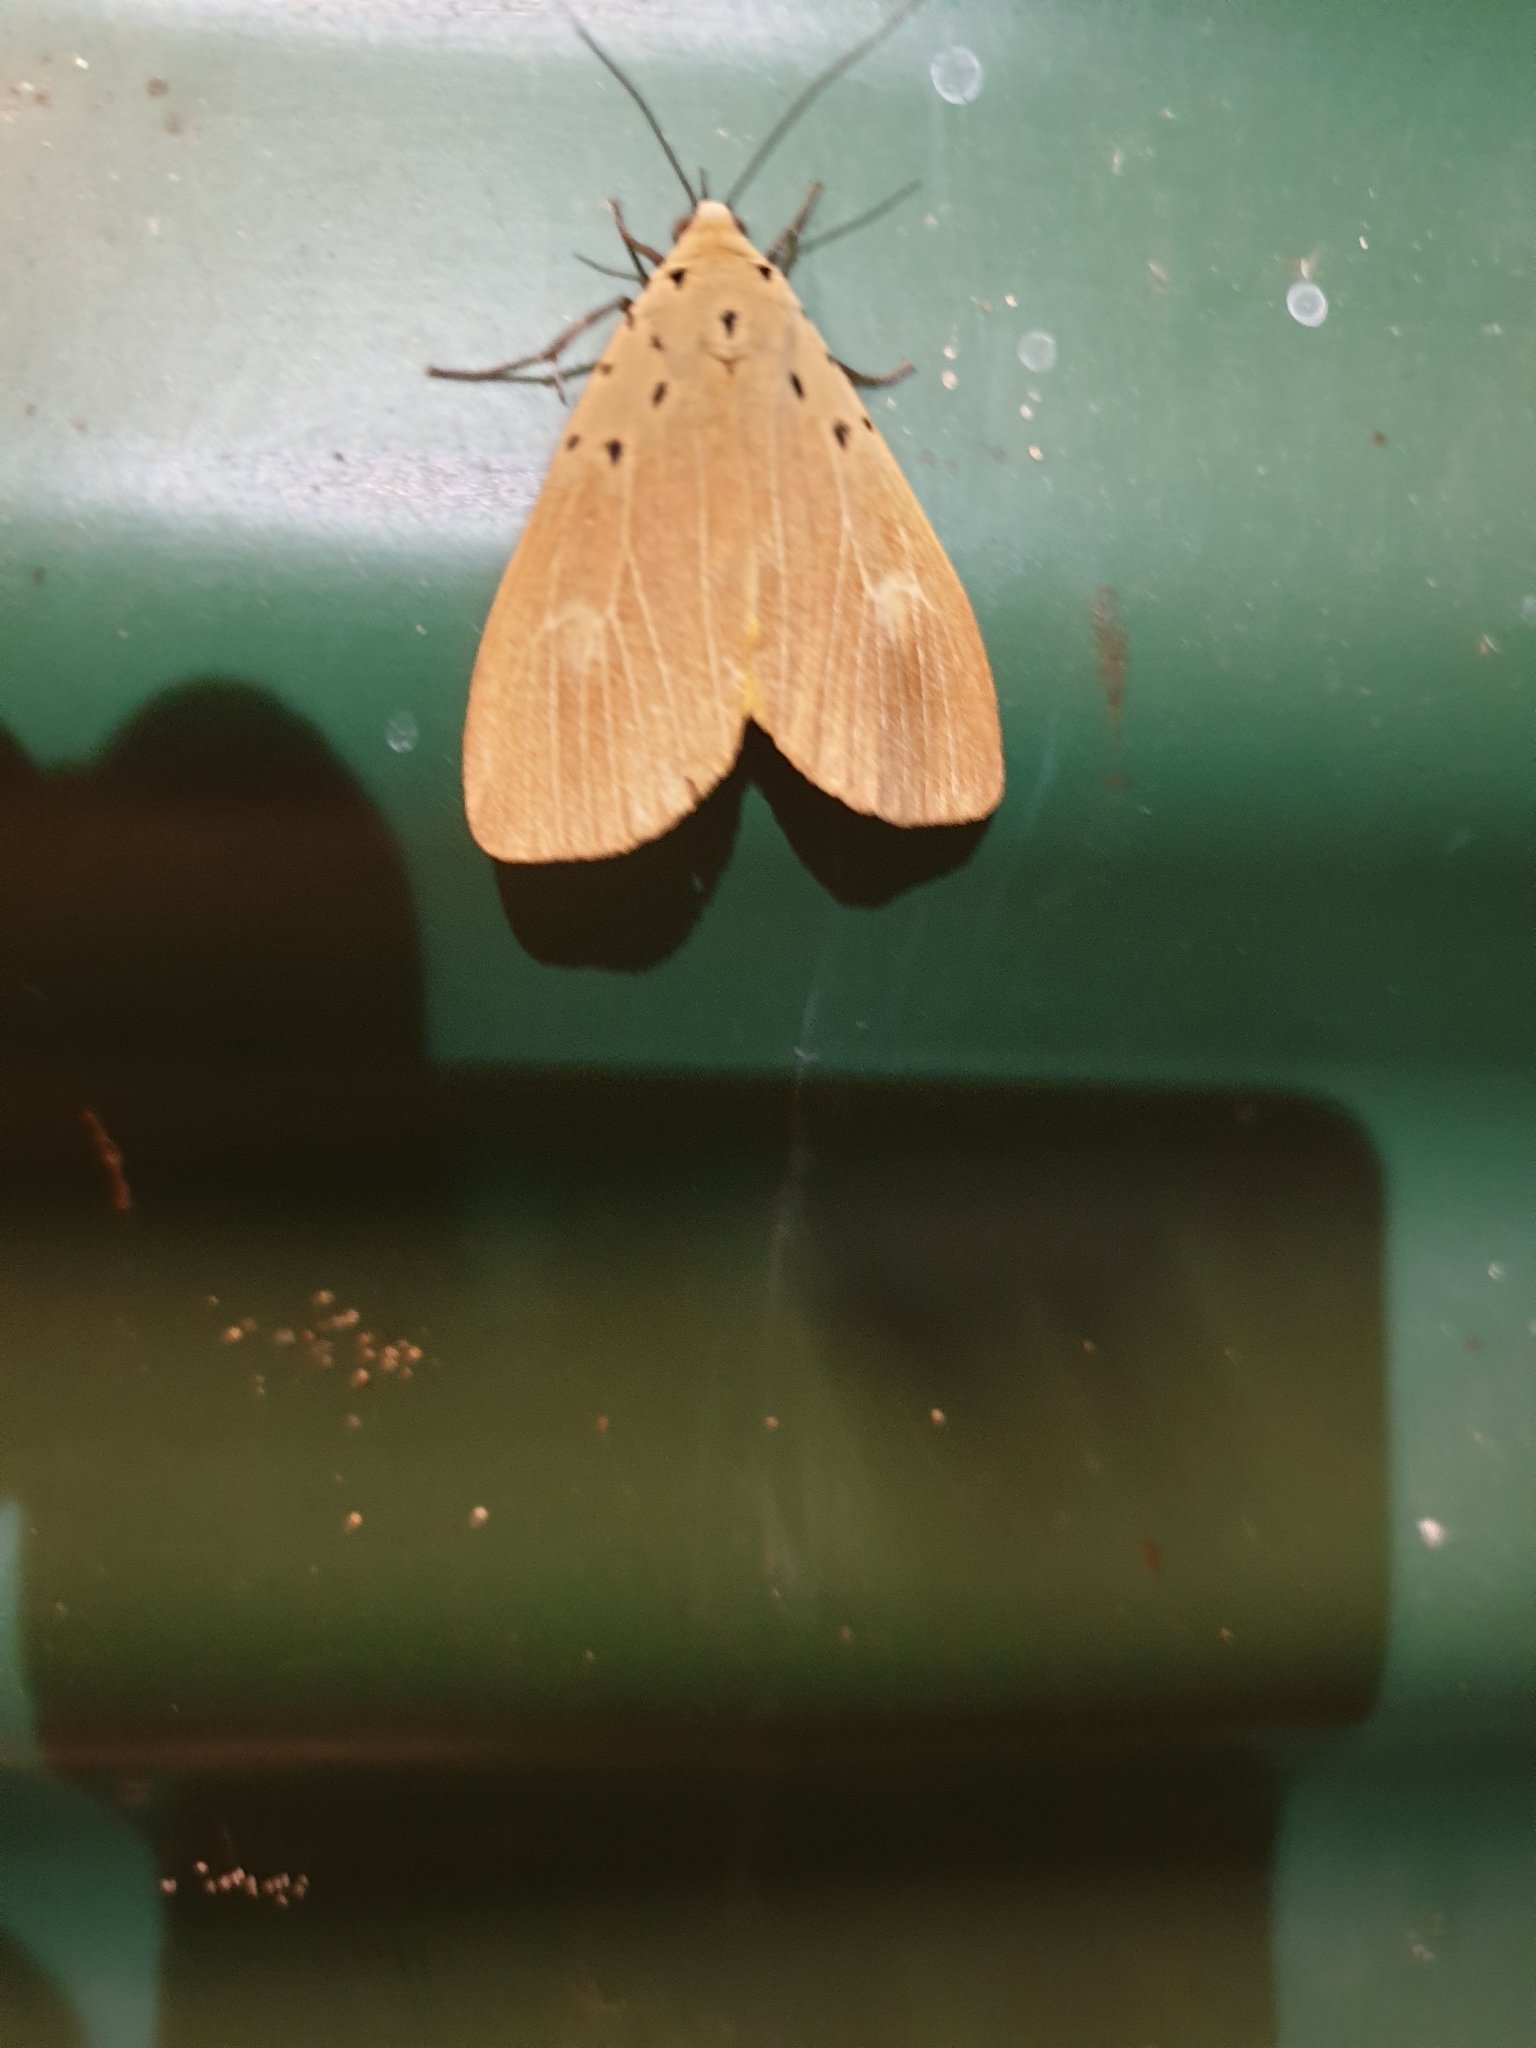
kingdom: Animalia
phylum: Arthropoda
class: Insecta
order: Lepidoptera
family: Erebidae
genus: Asota
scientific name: Asota iodamia
